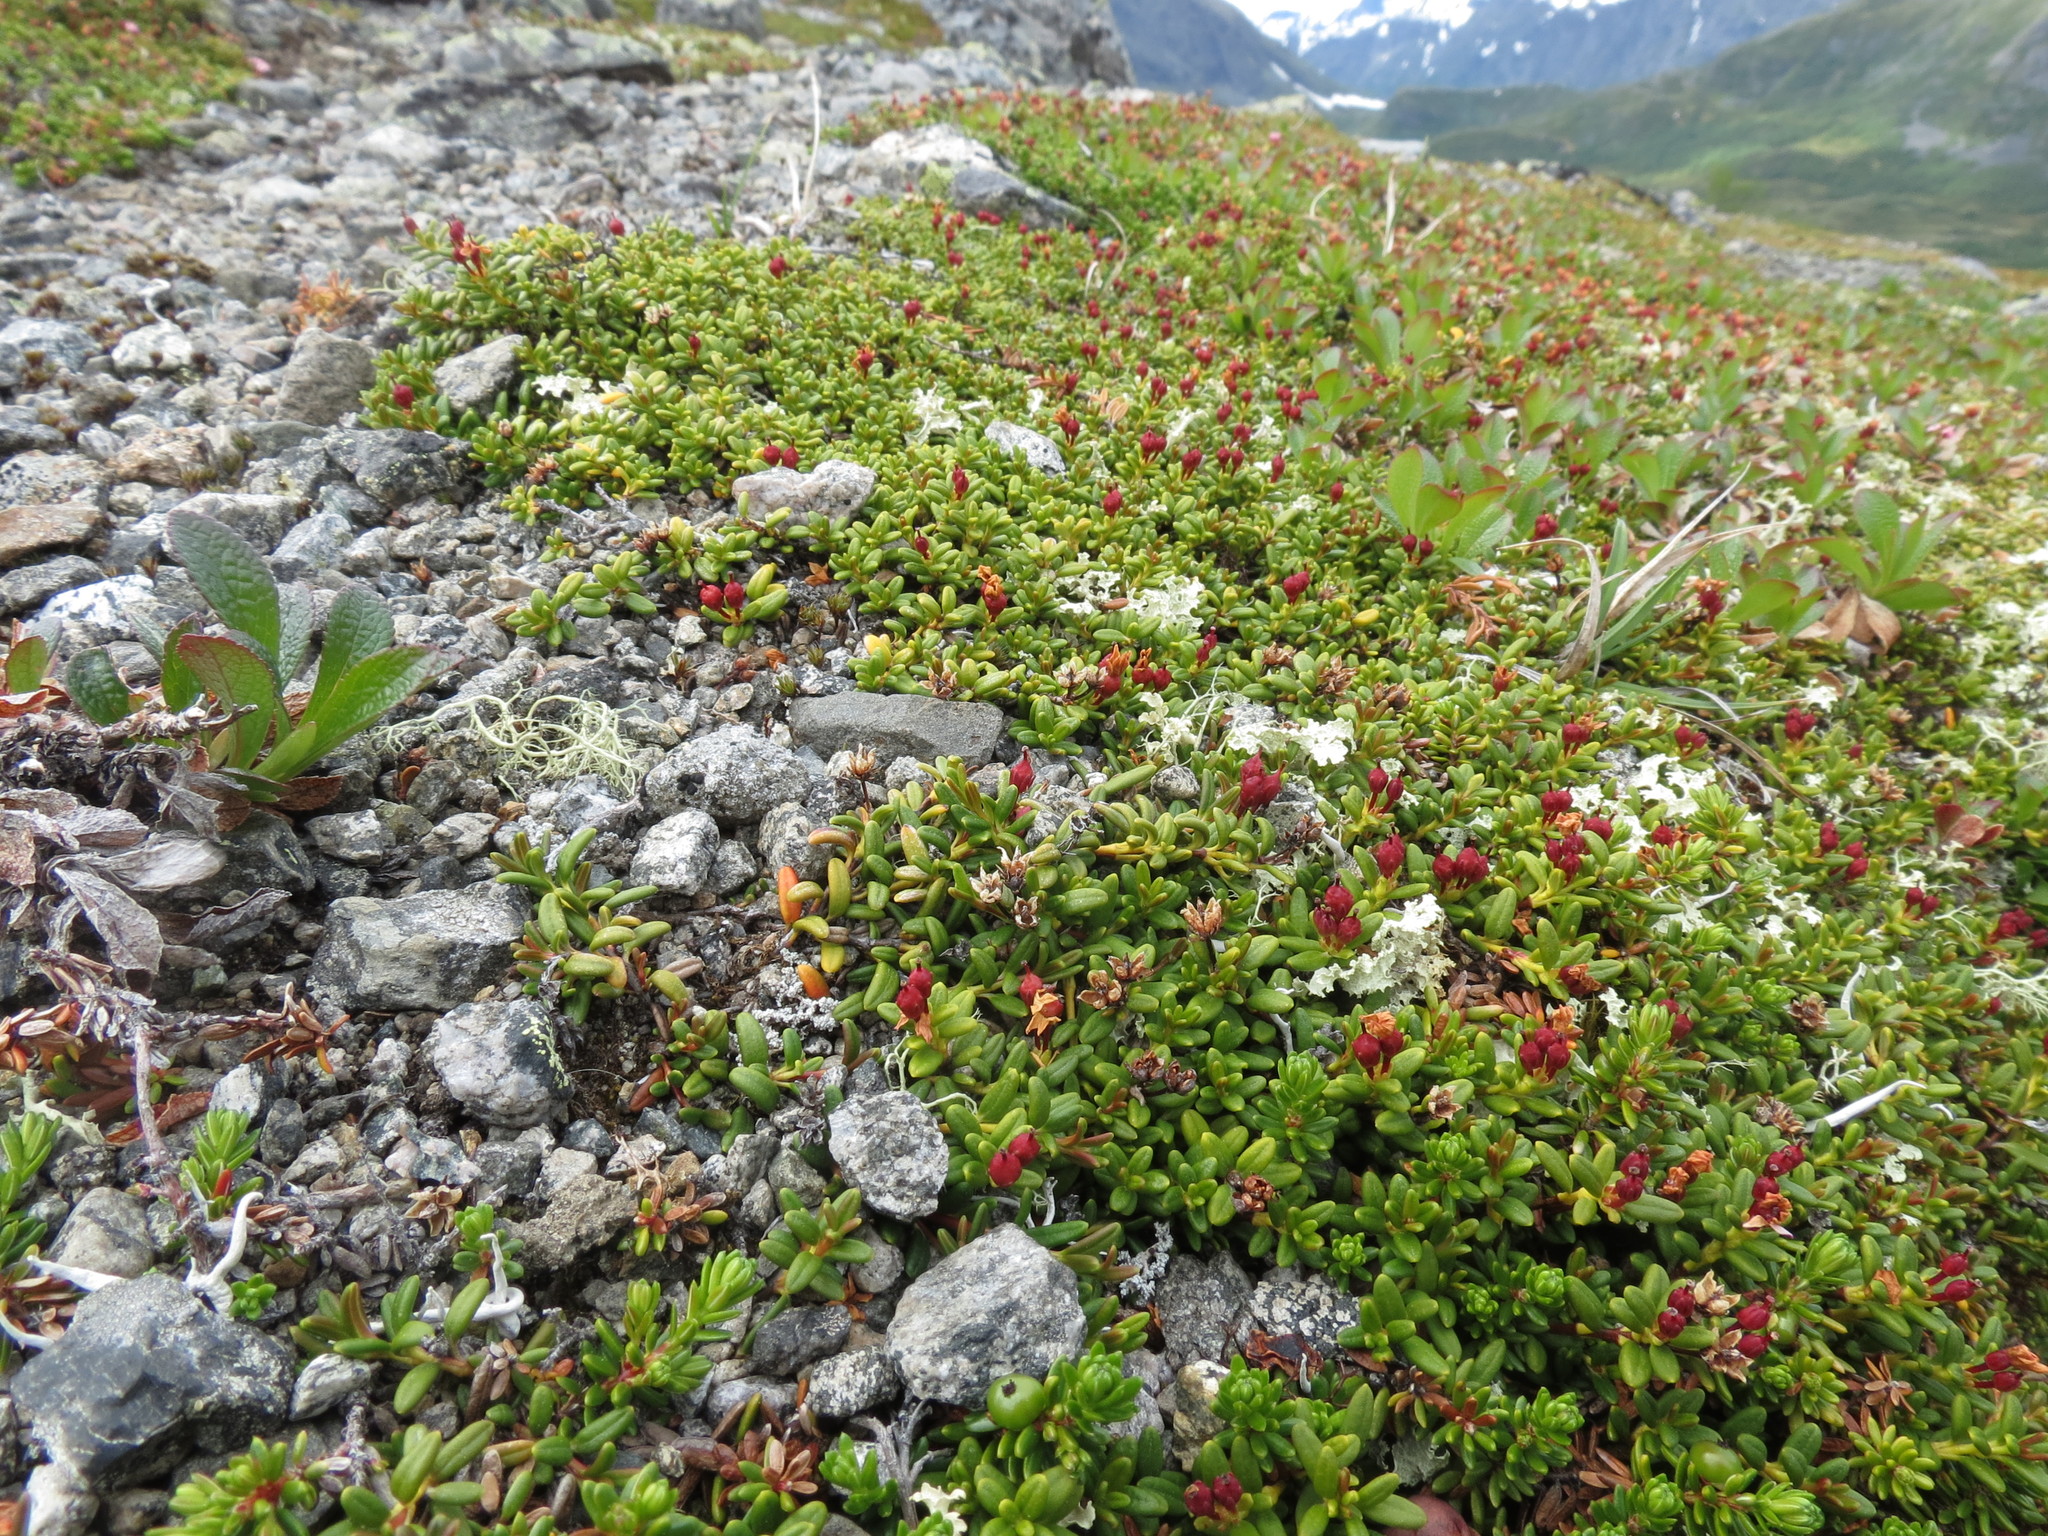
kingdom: Plantae
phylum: Tracheophyta
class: Magnoliopsida
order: Ericales
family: Ericaceae
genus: Kalmia
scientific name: Kalmia procumbens
